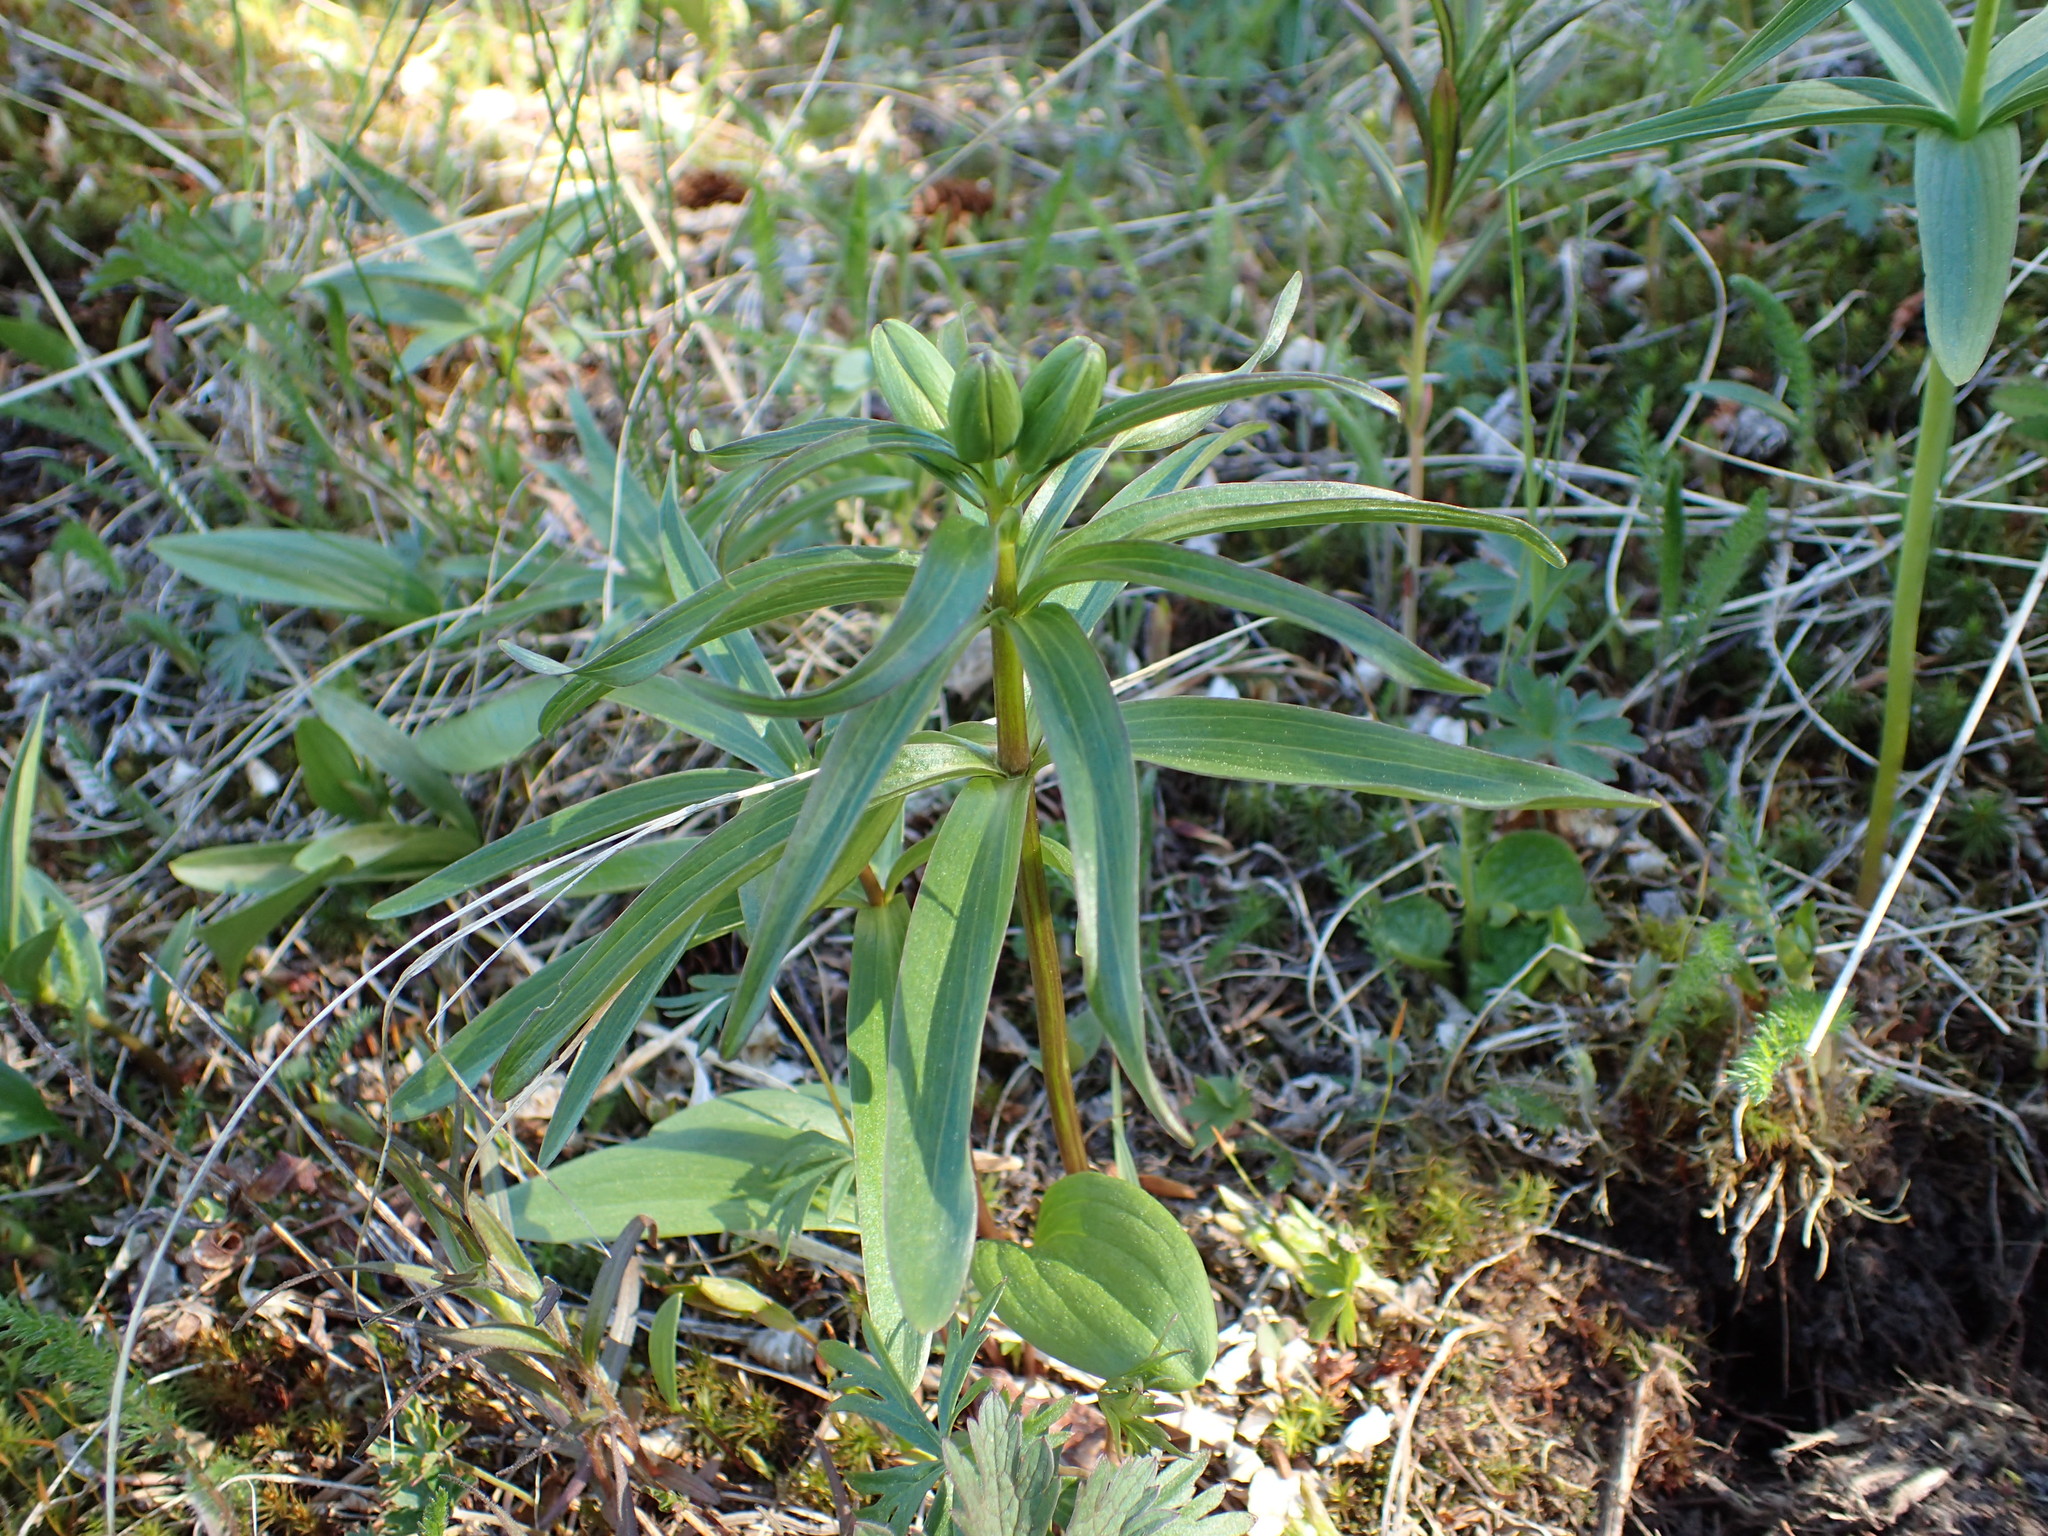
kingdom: Plantae
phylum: Tracheophyta
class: Liliopsida
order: Liliales
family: Liliaceae
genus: Fritillaria
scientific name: Fritillaria camschatcensis
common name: Kamchatka fritillary
